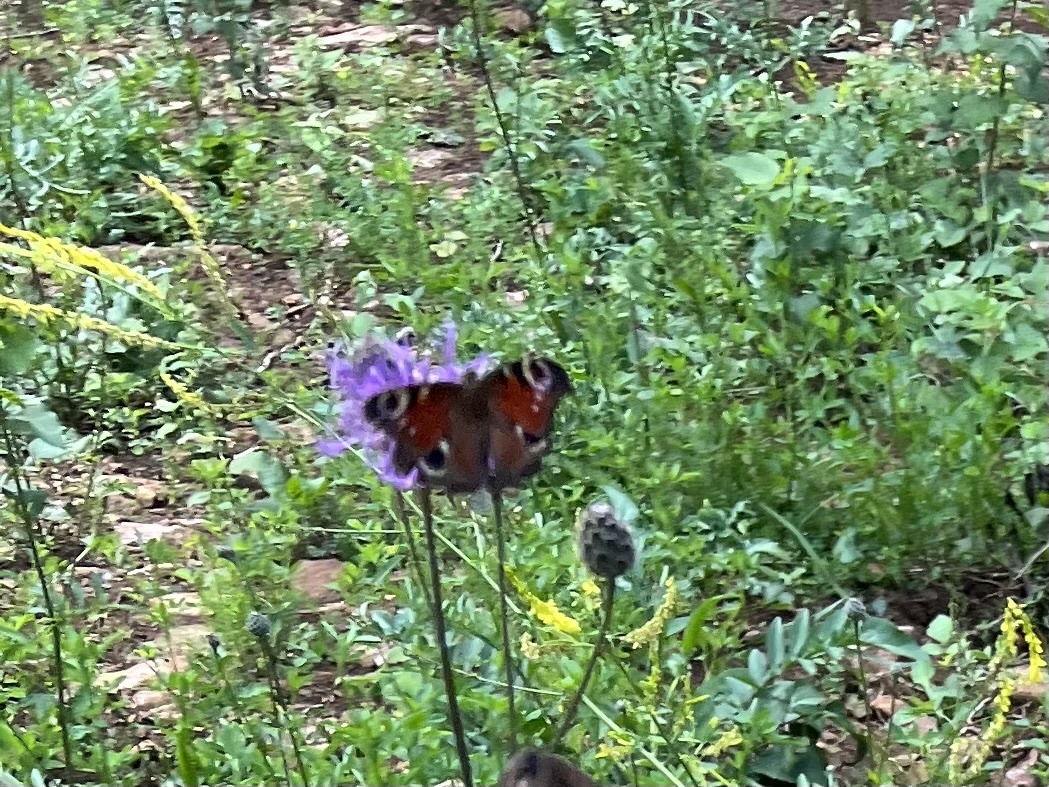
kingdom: Animalia
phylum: Arthropoda
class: Insecta
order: Lepidoptera
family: Nymphalidae
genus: Aglais
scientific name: Aglais io
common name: Peacock
